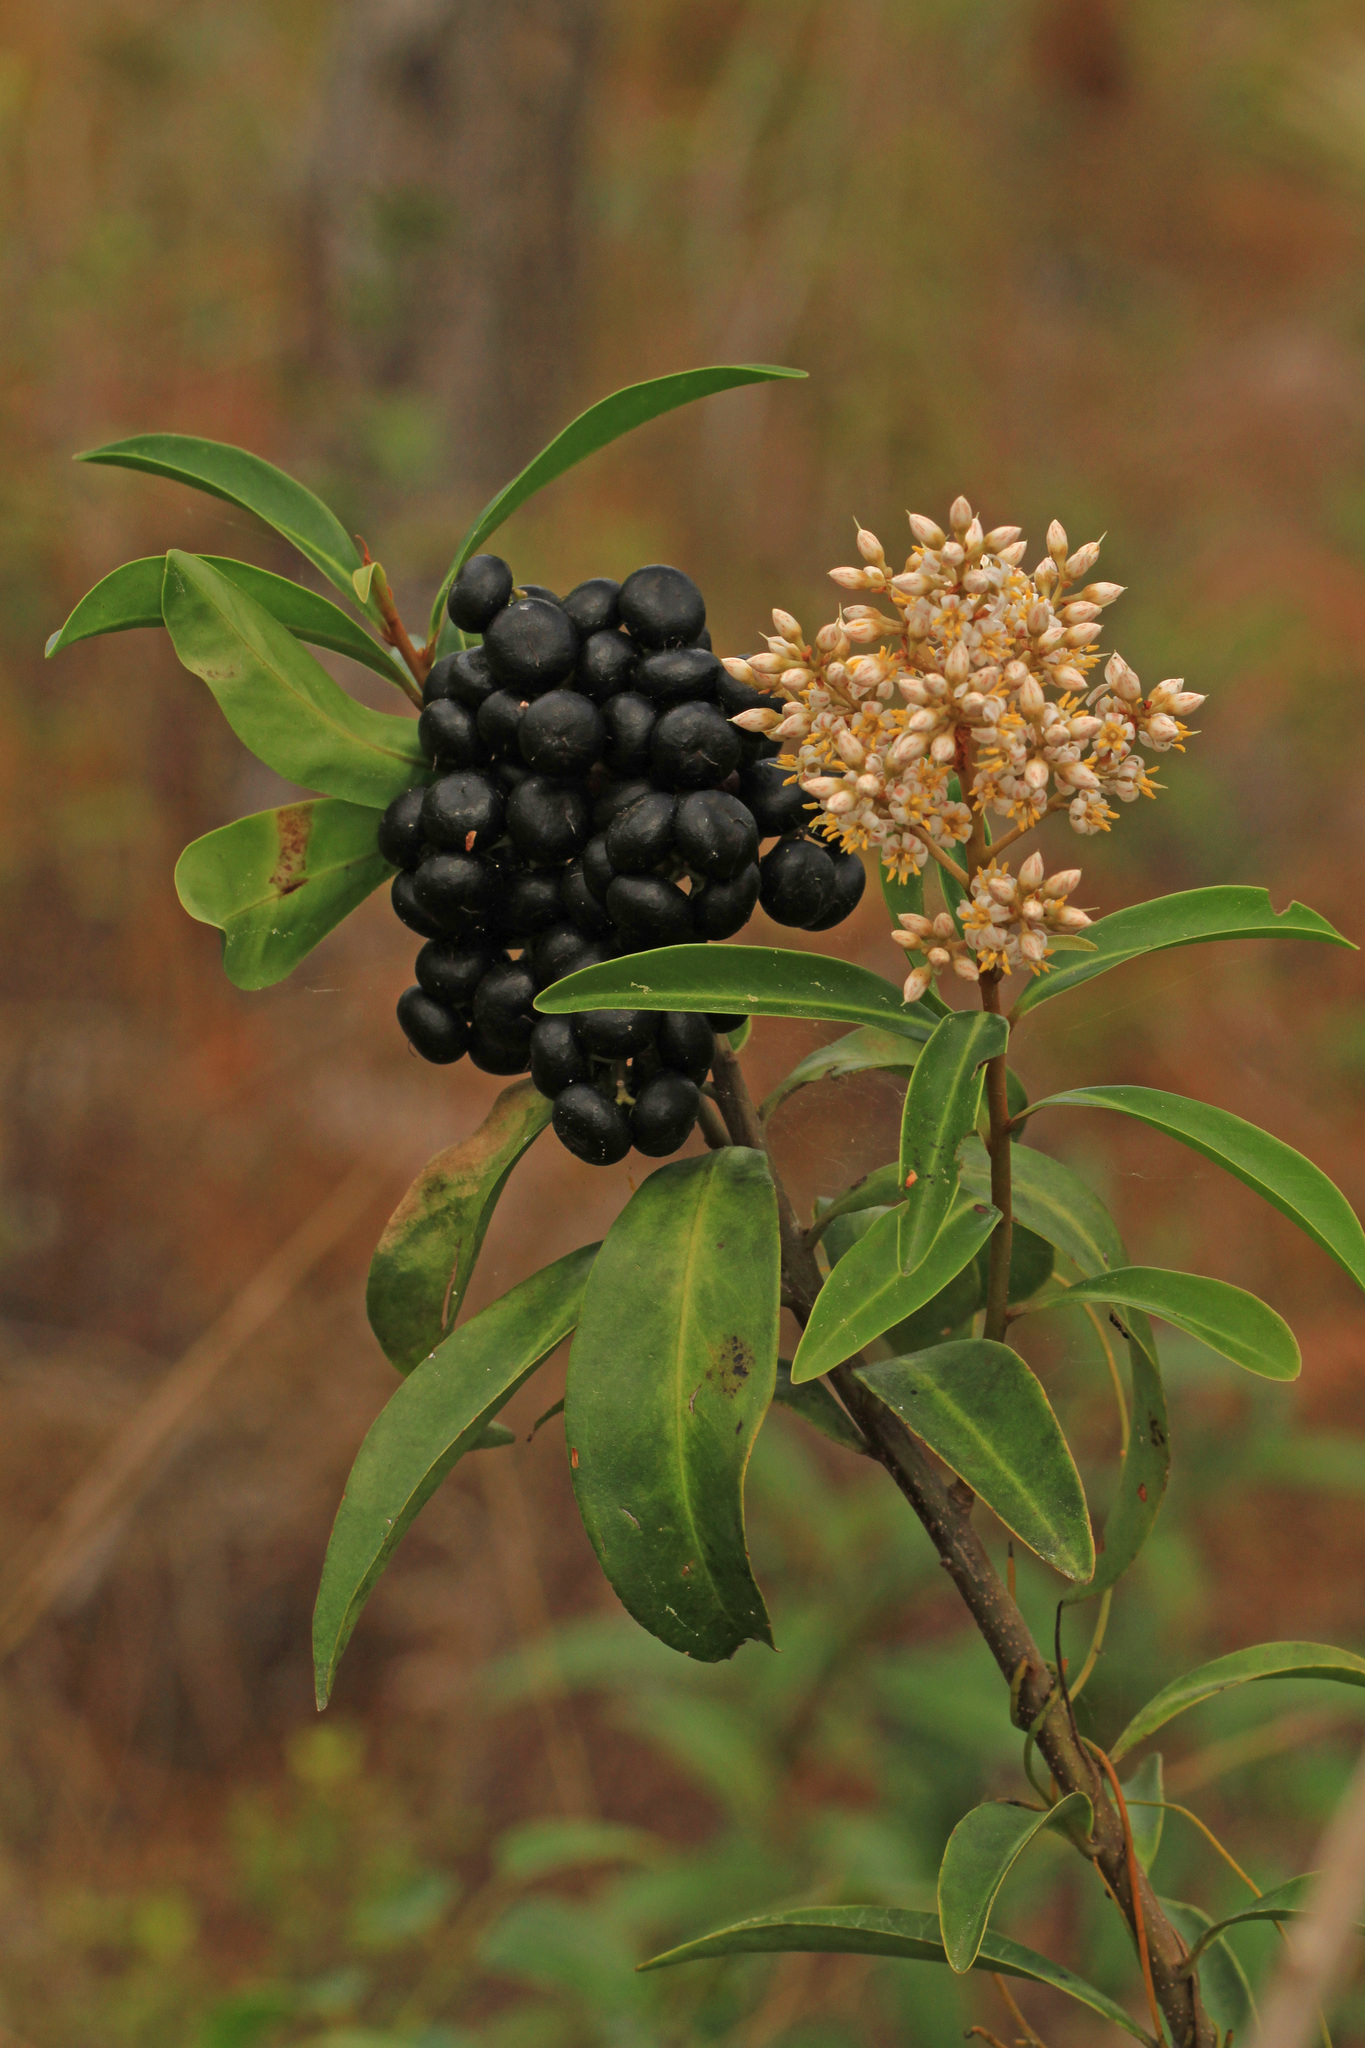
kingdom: Plantae
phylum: Tracheophyta
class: Magnoliopsida
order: Ericales
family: Primulaceae
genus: Ardisia
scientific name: Ardisia escallonioides
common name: Island marlberry
